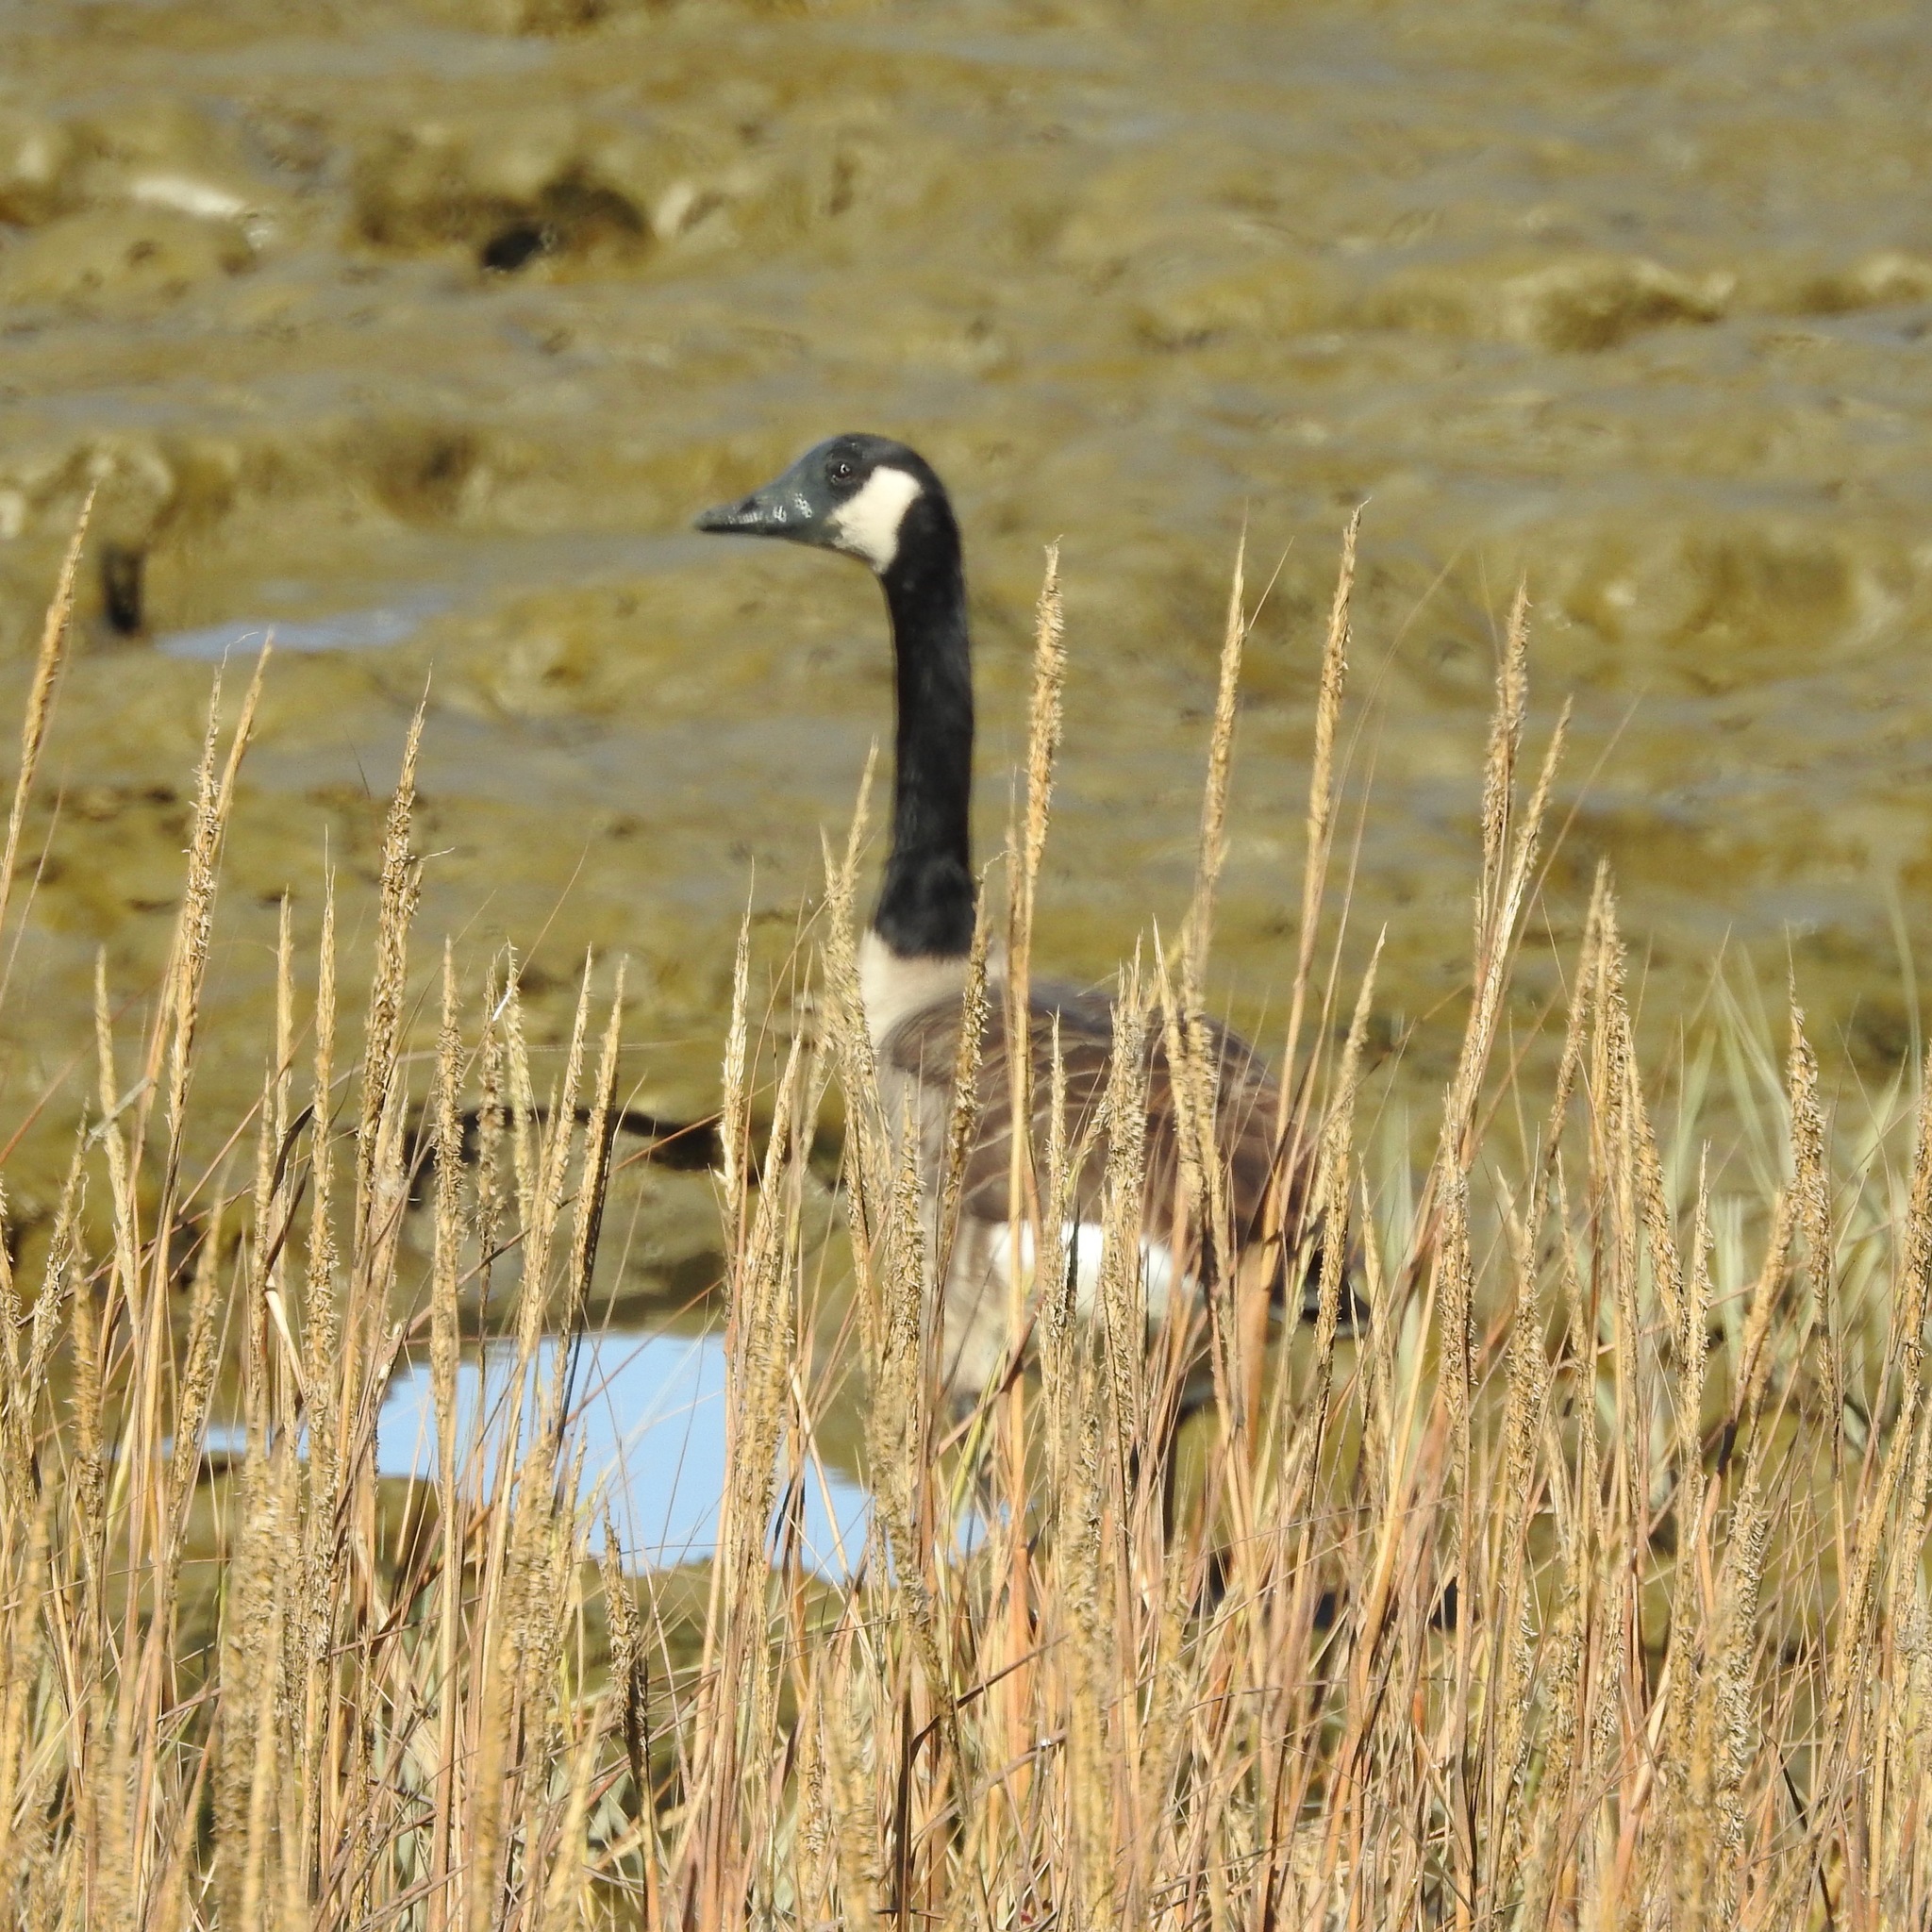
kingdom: Animalia
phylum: Chordata
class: Aves
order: Anseriformes
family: Anatidae
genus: Branta
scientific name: Branta canadensis
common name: Canada goose
